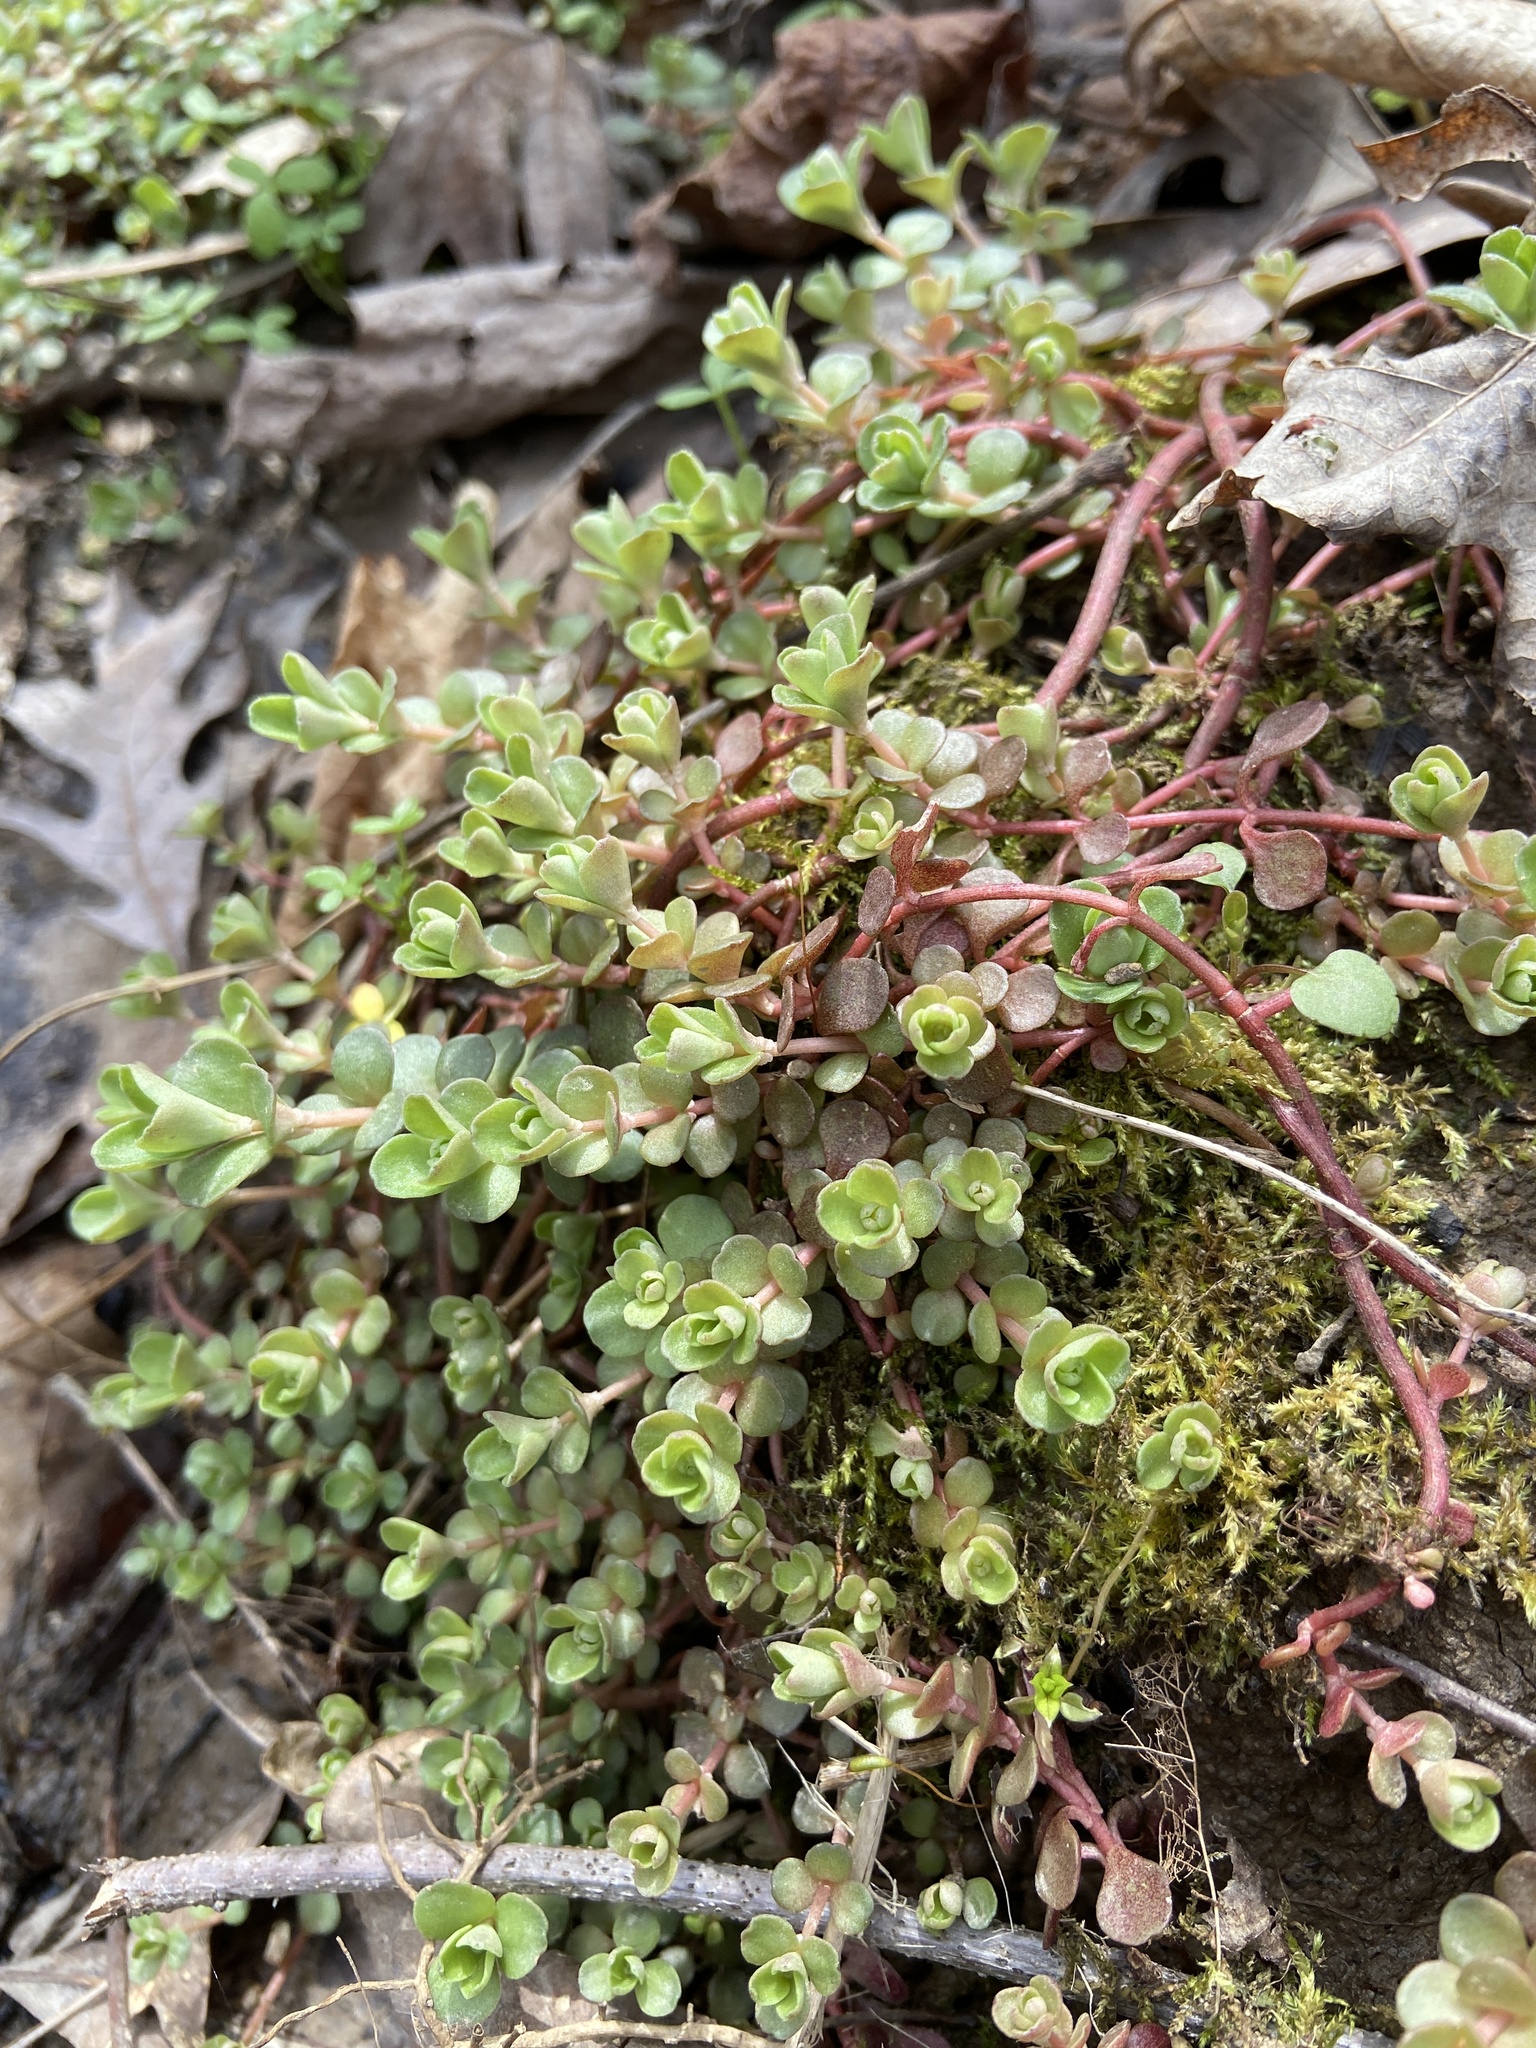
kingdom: Plantae
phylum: Tracheophyta
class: Magnoliopsida
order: Saxifragales
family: Crassulaceae
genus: Sedum
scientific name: Sedum ternatum
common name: Wild stonecrop
